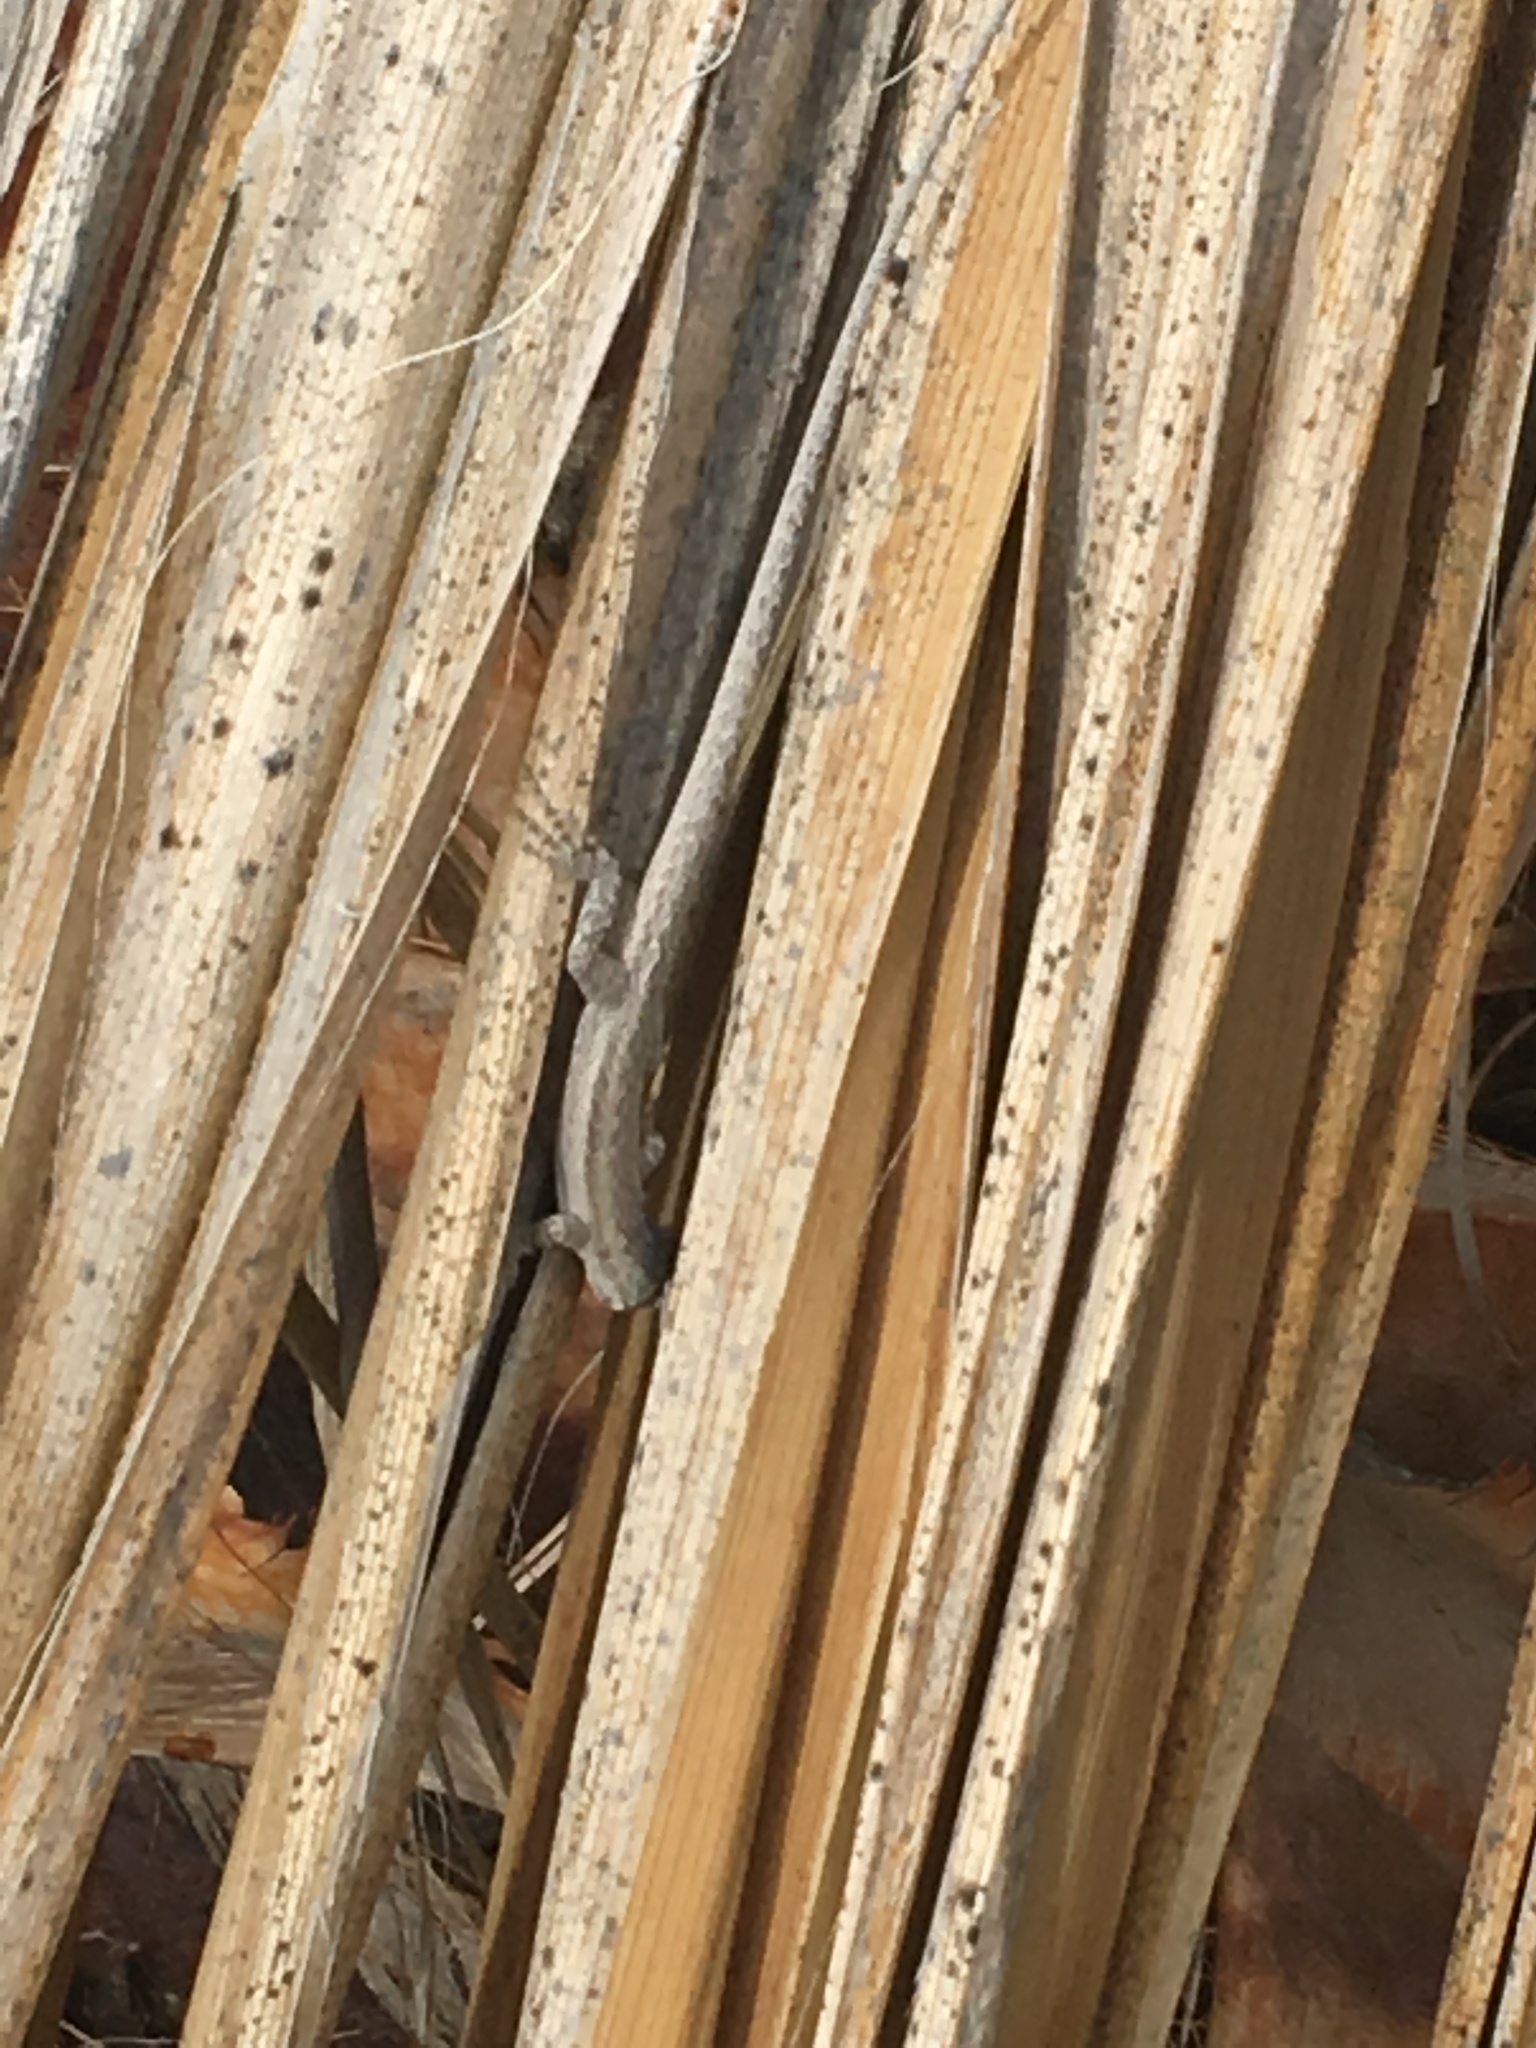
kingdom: Animalia
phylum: Chordata
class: Squamata
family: Phrynosomatidae
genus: Urosaurus
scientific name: Urosaurus graciosus
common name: Long-tailed brush lizard
